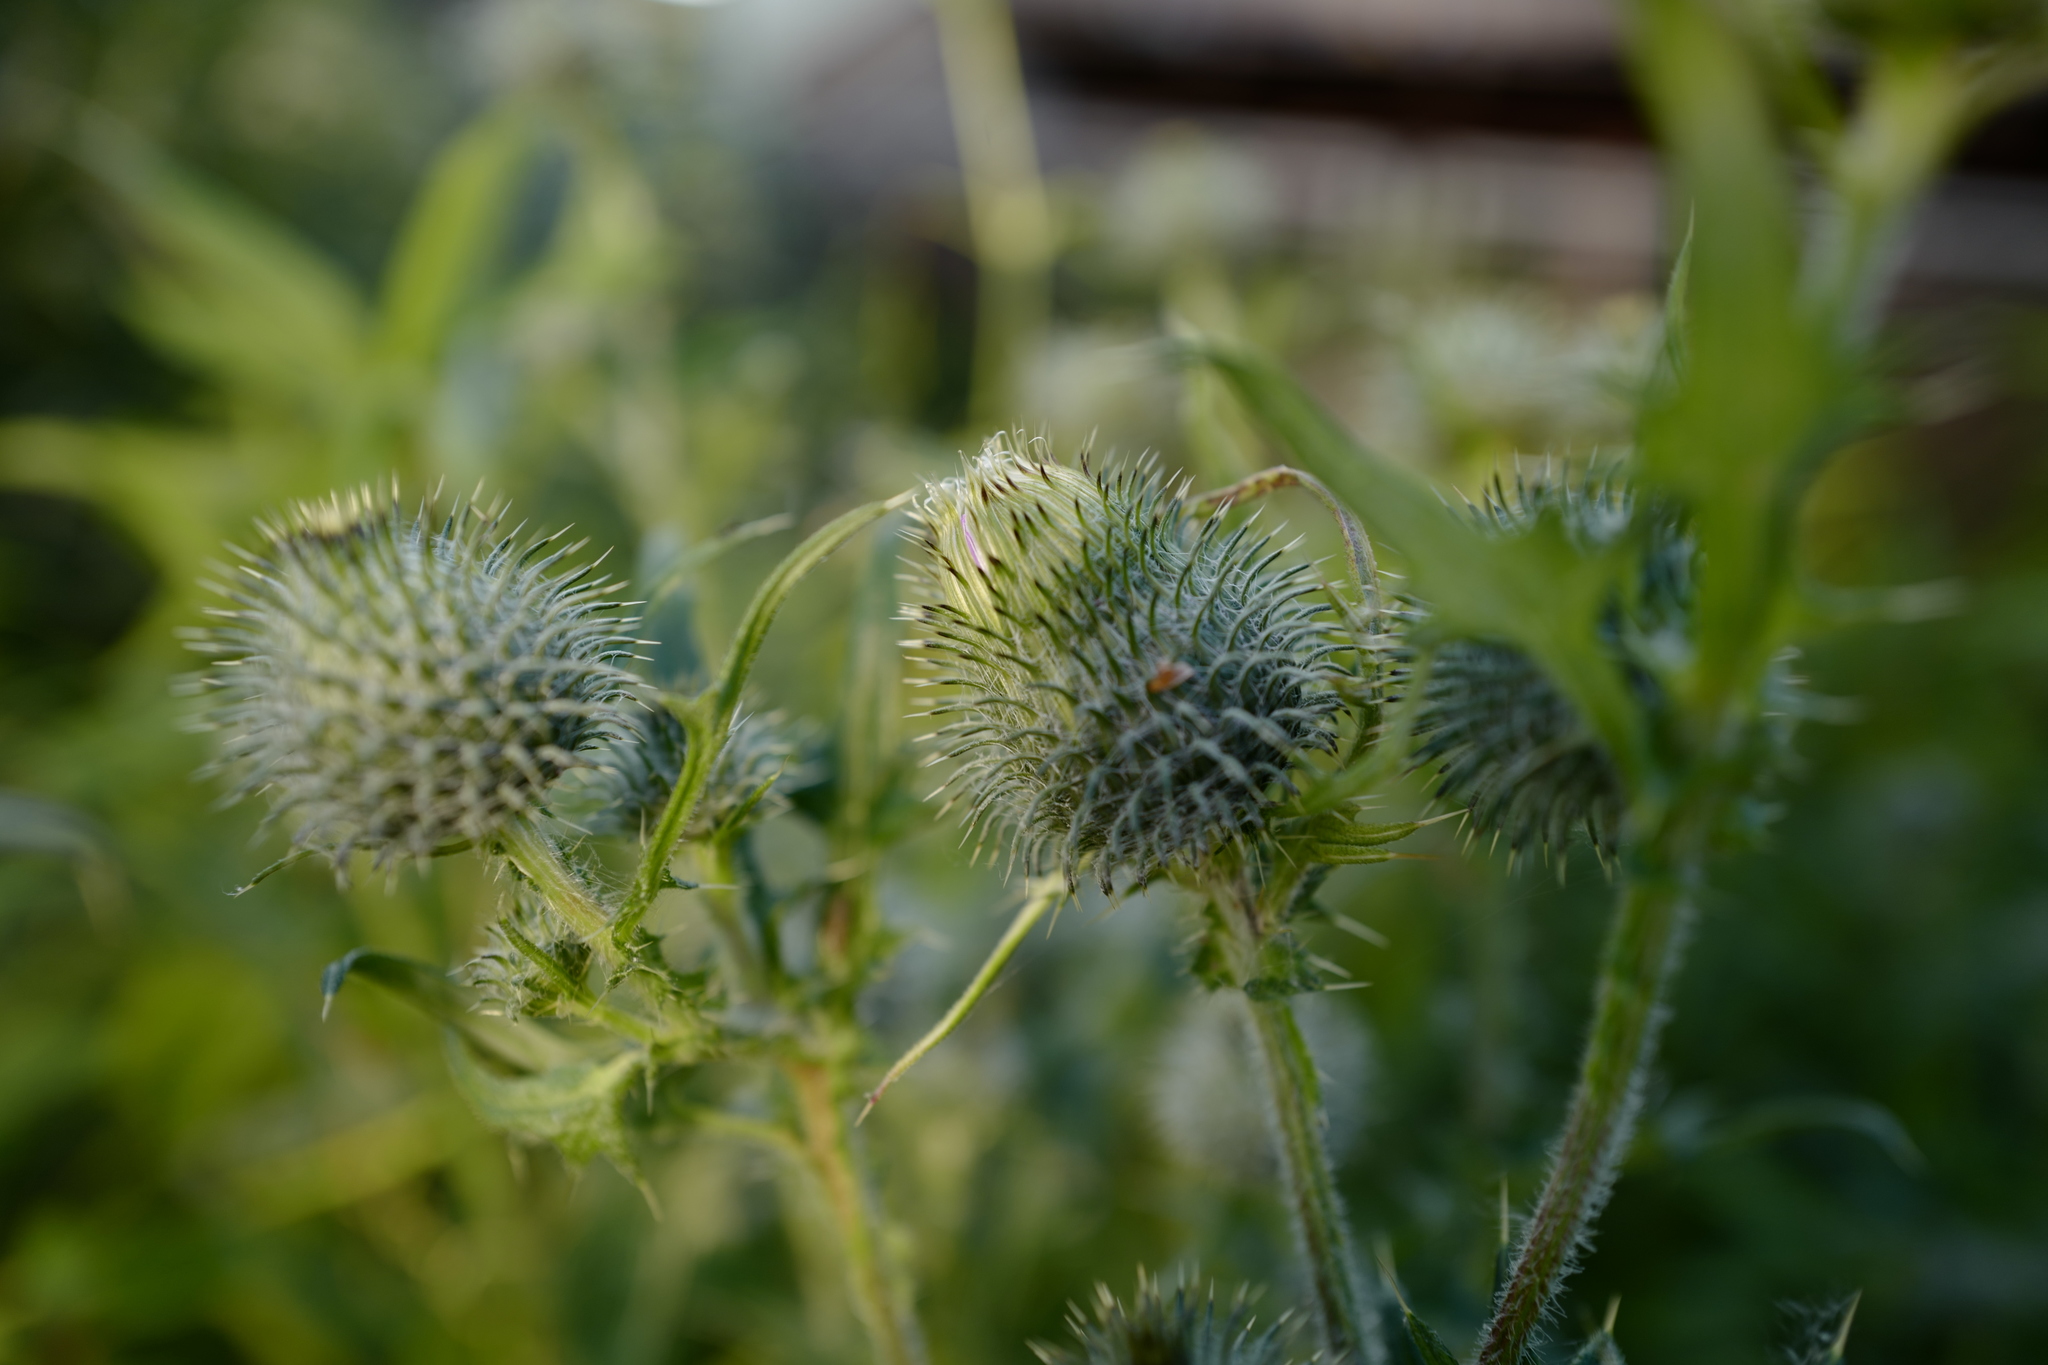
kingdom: Plantae
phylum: Tracheophyta
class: Magnoliopsida
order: Asterales
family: Asteraceae
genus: Lophiolepis
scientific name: Lophiolepis eriophora
